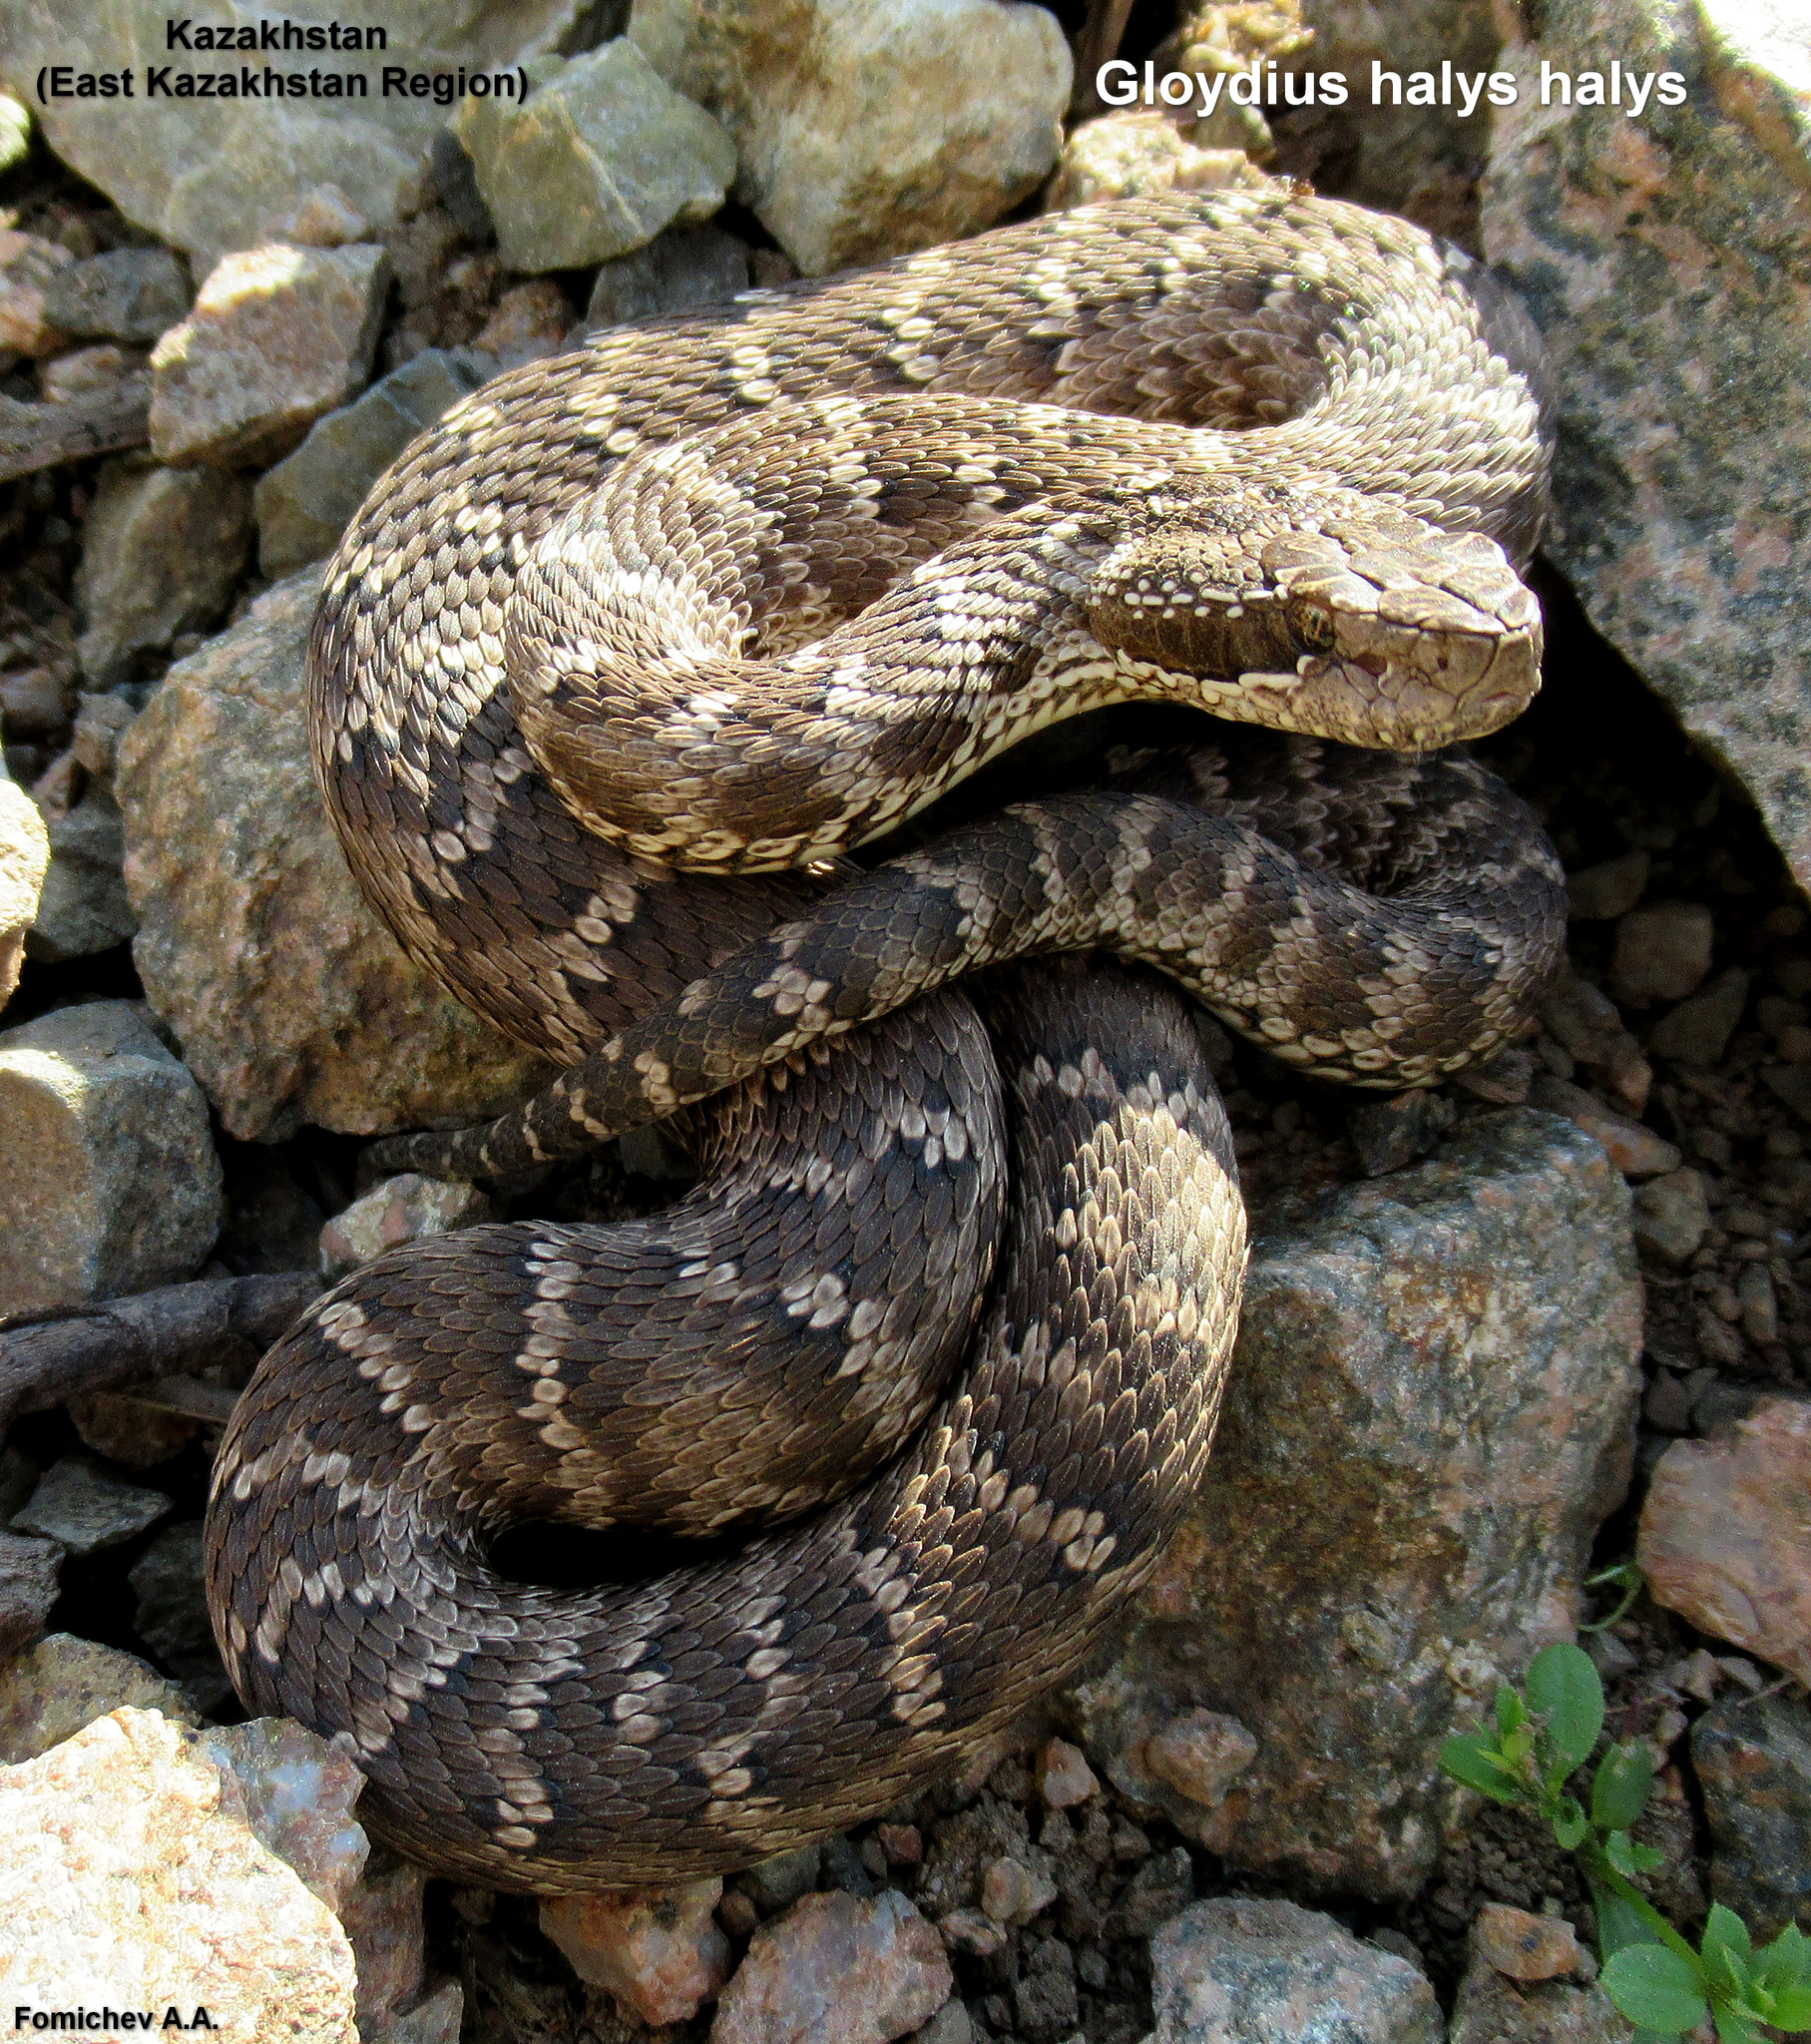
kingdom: Animalia
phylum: Chordata
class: Squamata
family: Viperidae
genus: Gloydius
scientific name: Gloydius halys
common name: Halys pit viper
